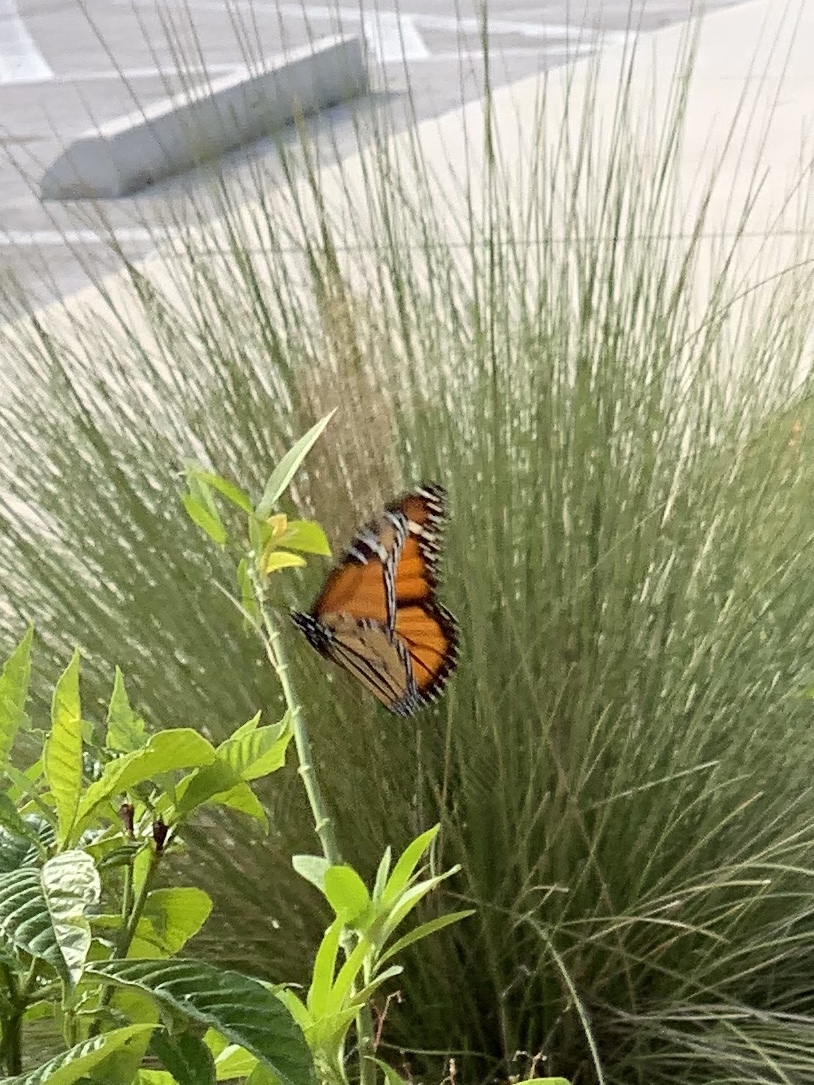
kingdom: Animalia
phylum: Arthropoda
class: Insecta
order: Lepidoptera
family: Nymphalidae
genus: Danaus
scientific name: Danaus plexippus
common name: Monarch
